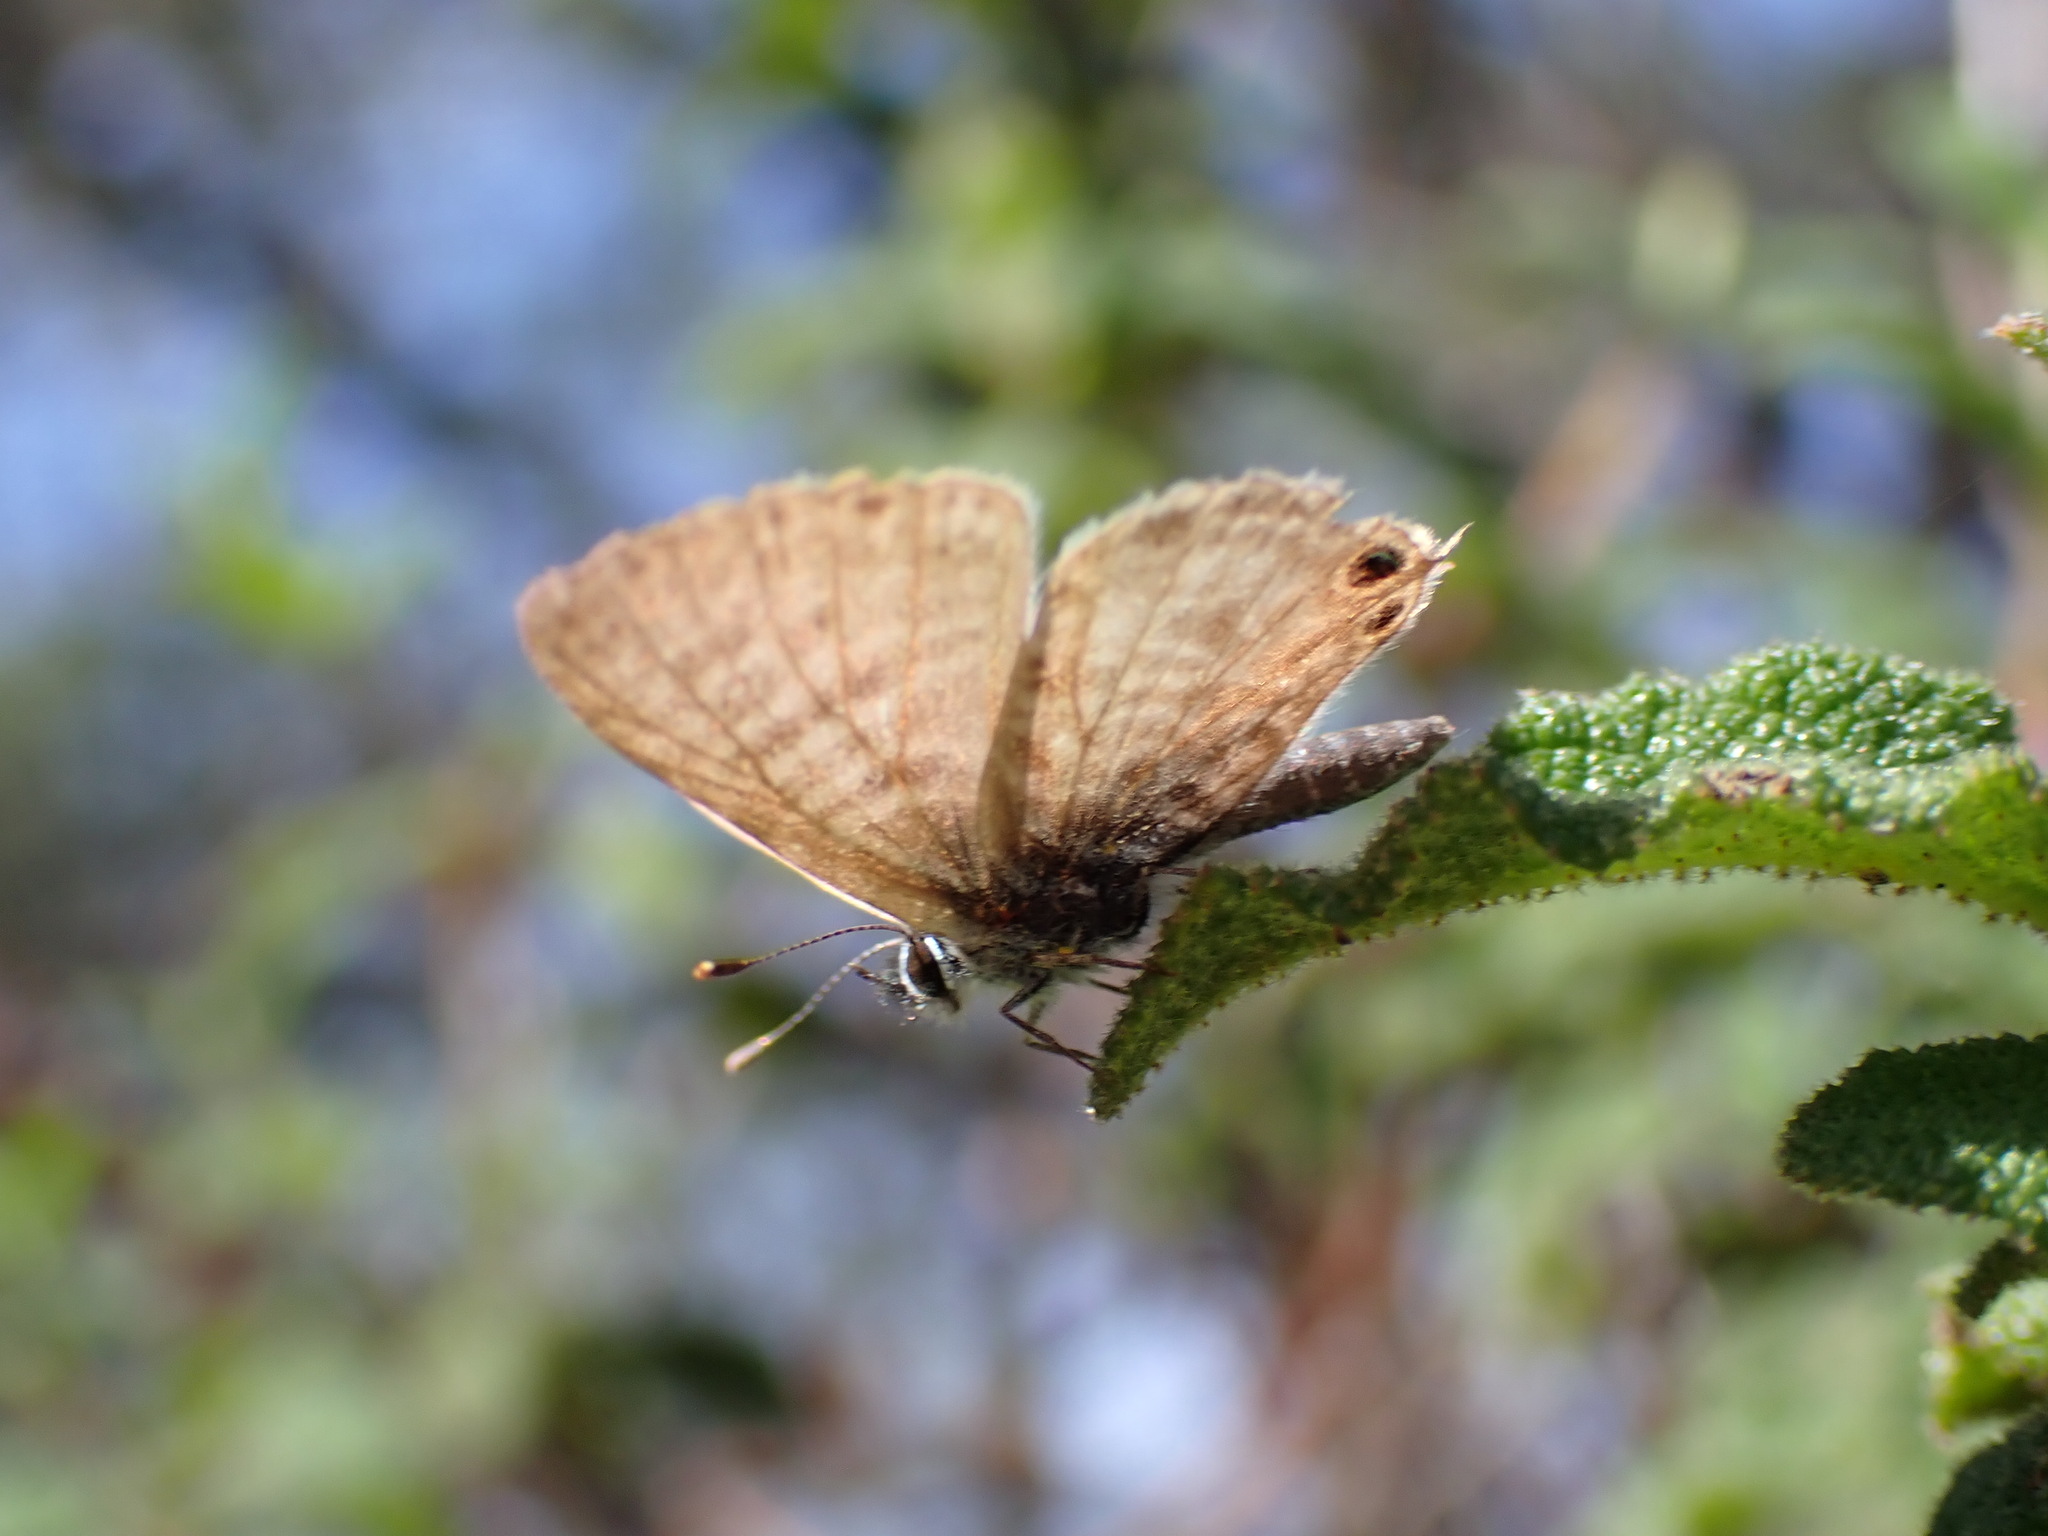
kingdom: Animalia
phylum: Arthropoda
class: Insecta
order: Lepidoptera
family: Lycaenidae
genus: Leptotes
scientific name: Leptotes pirithous
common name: Lang's short-tailed blue
